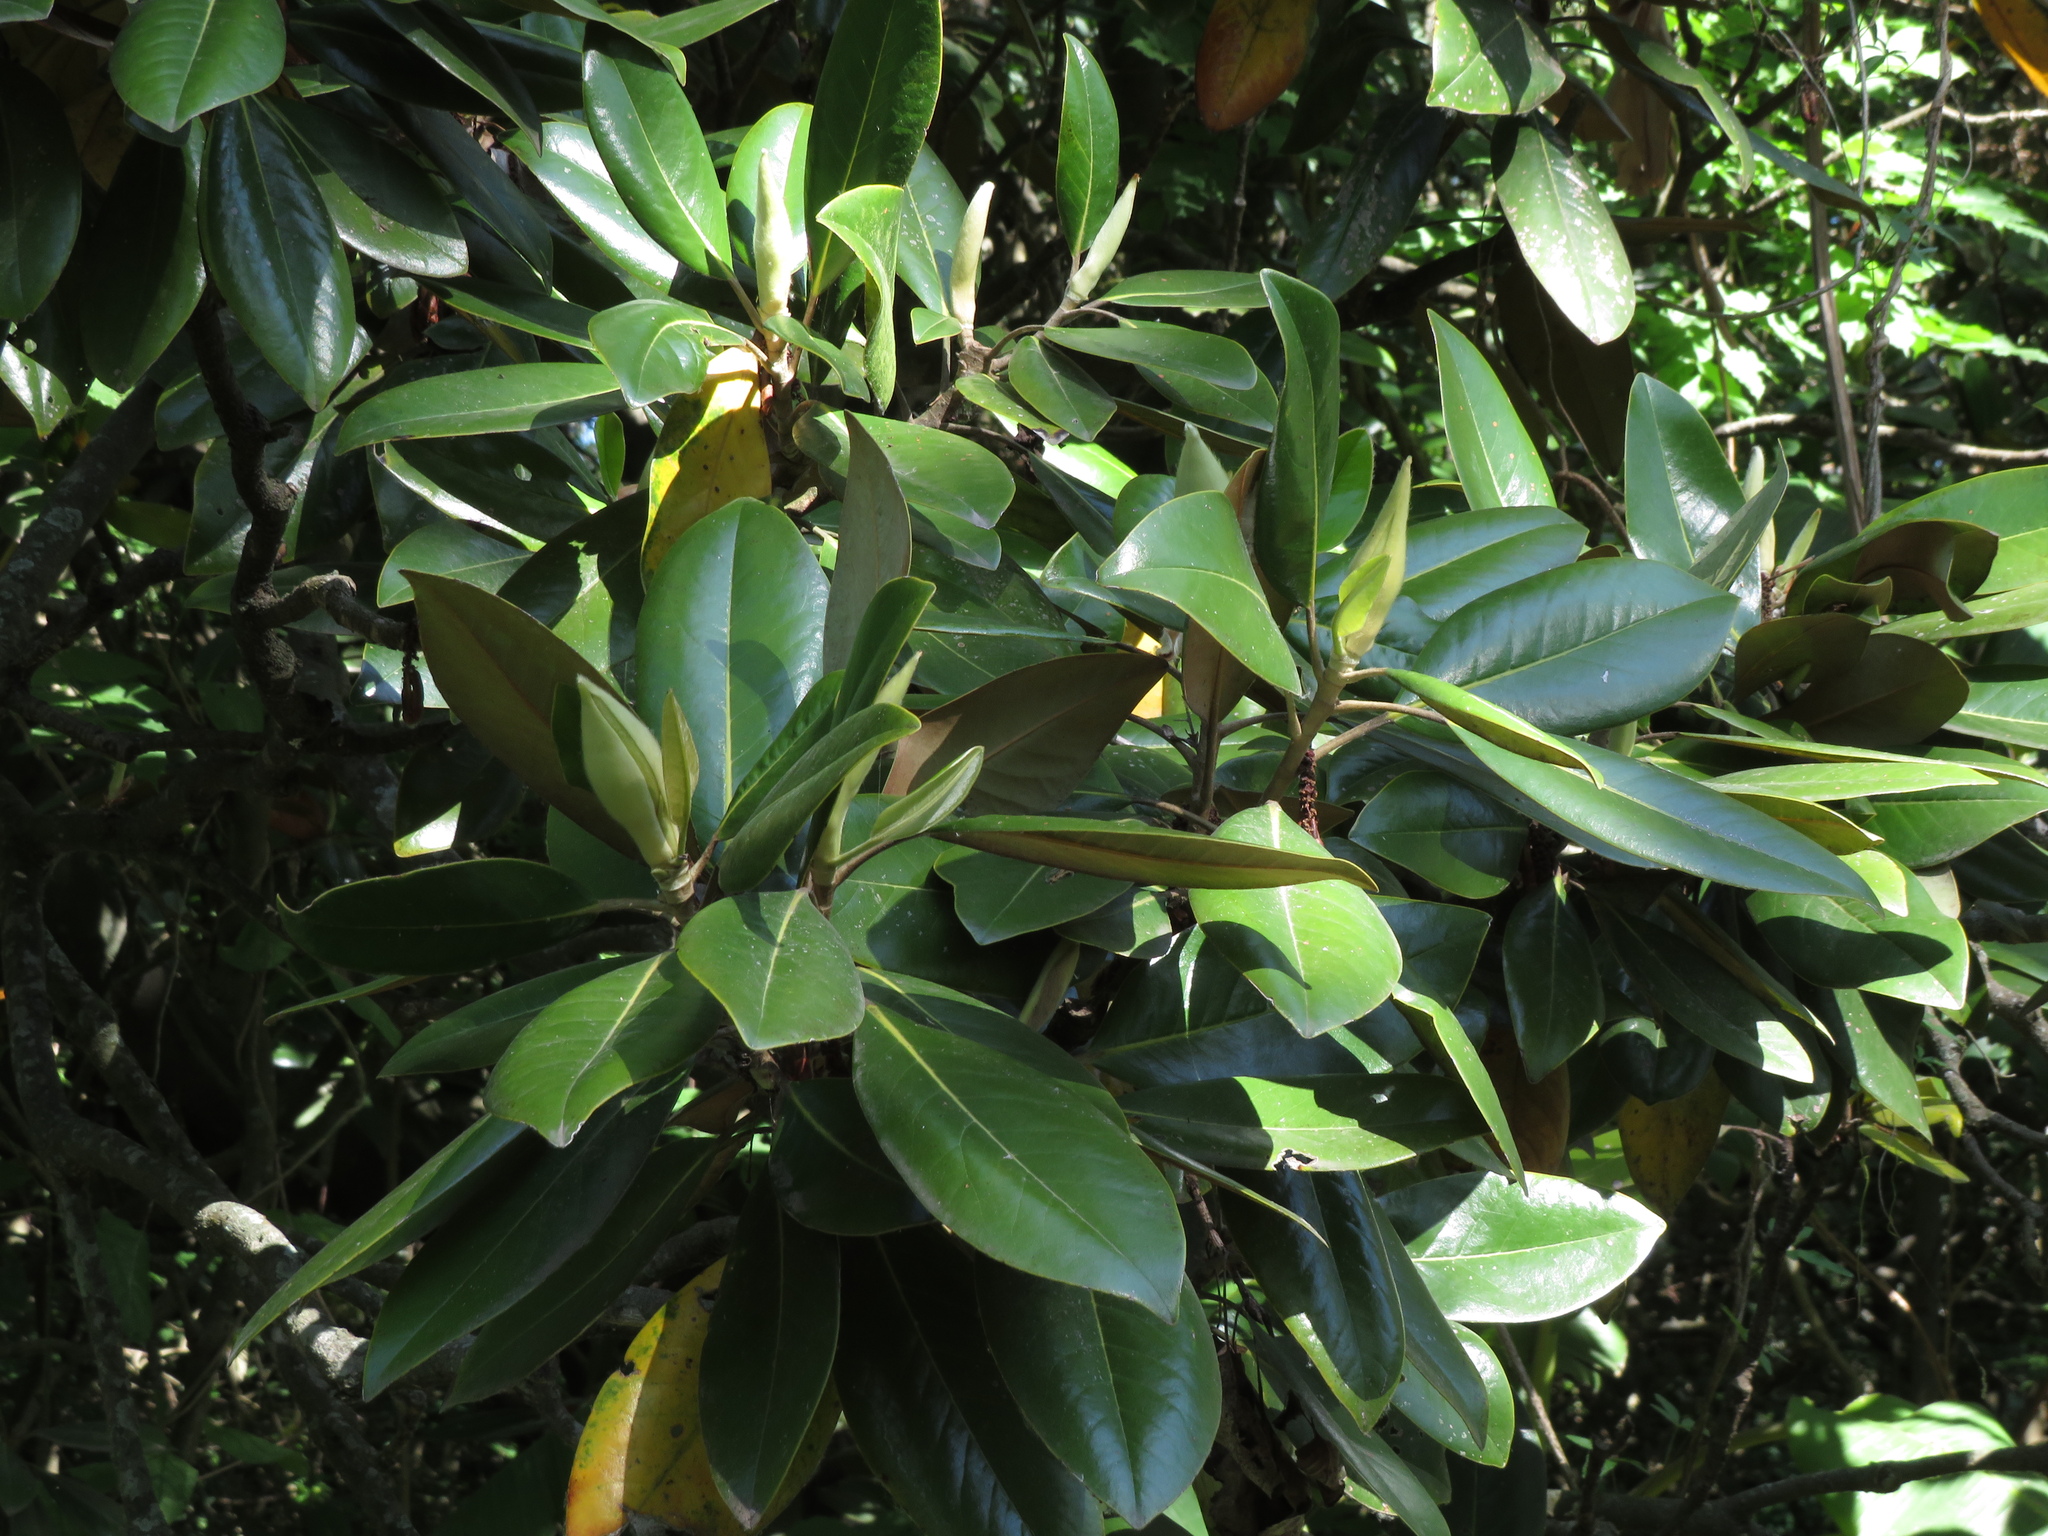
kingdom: Plantae
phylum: Tracheophyta
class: Magnoliopsida
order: Magnoliales
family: Magnoliaceae
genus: Magnolia
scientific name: Magnolia grandiflora
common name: Southern magnolia
